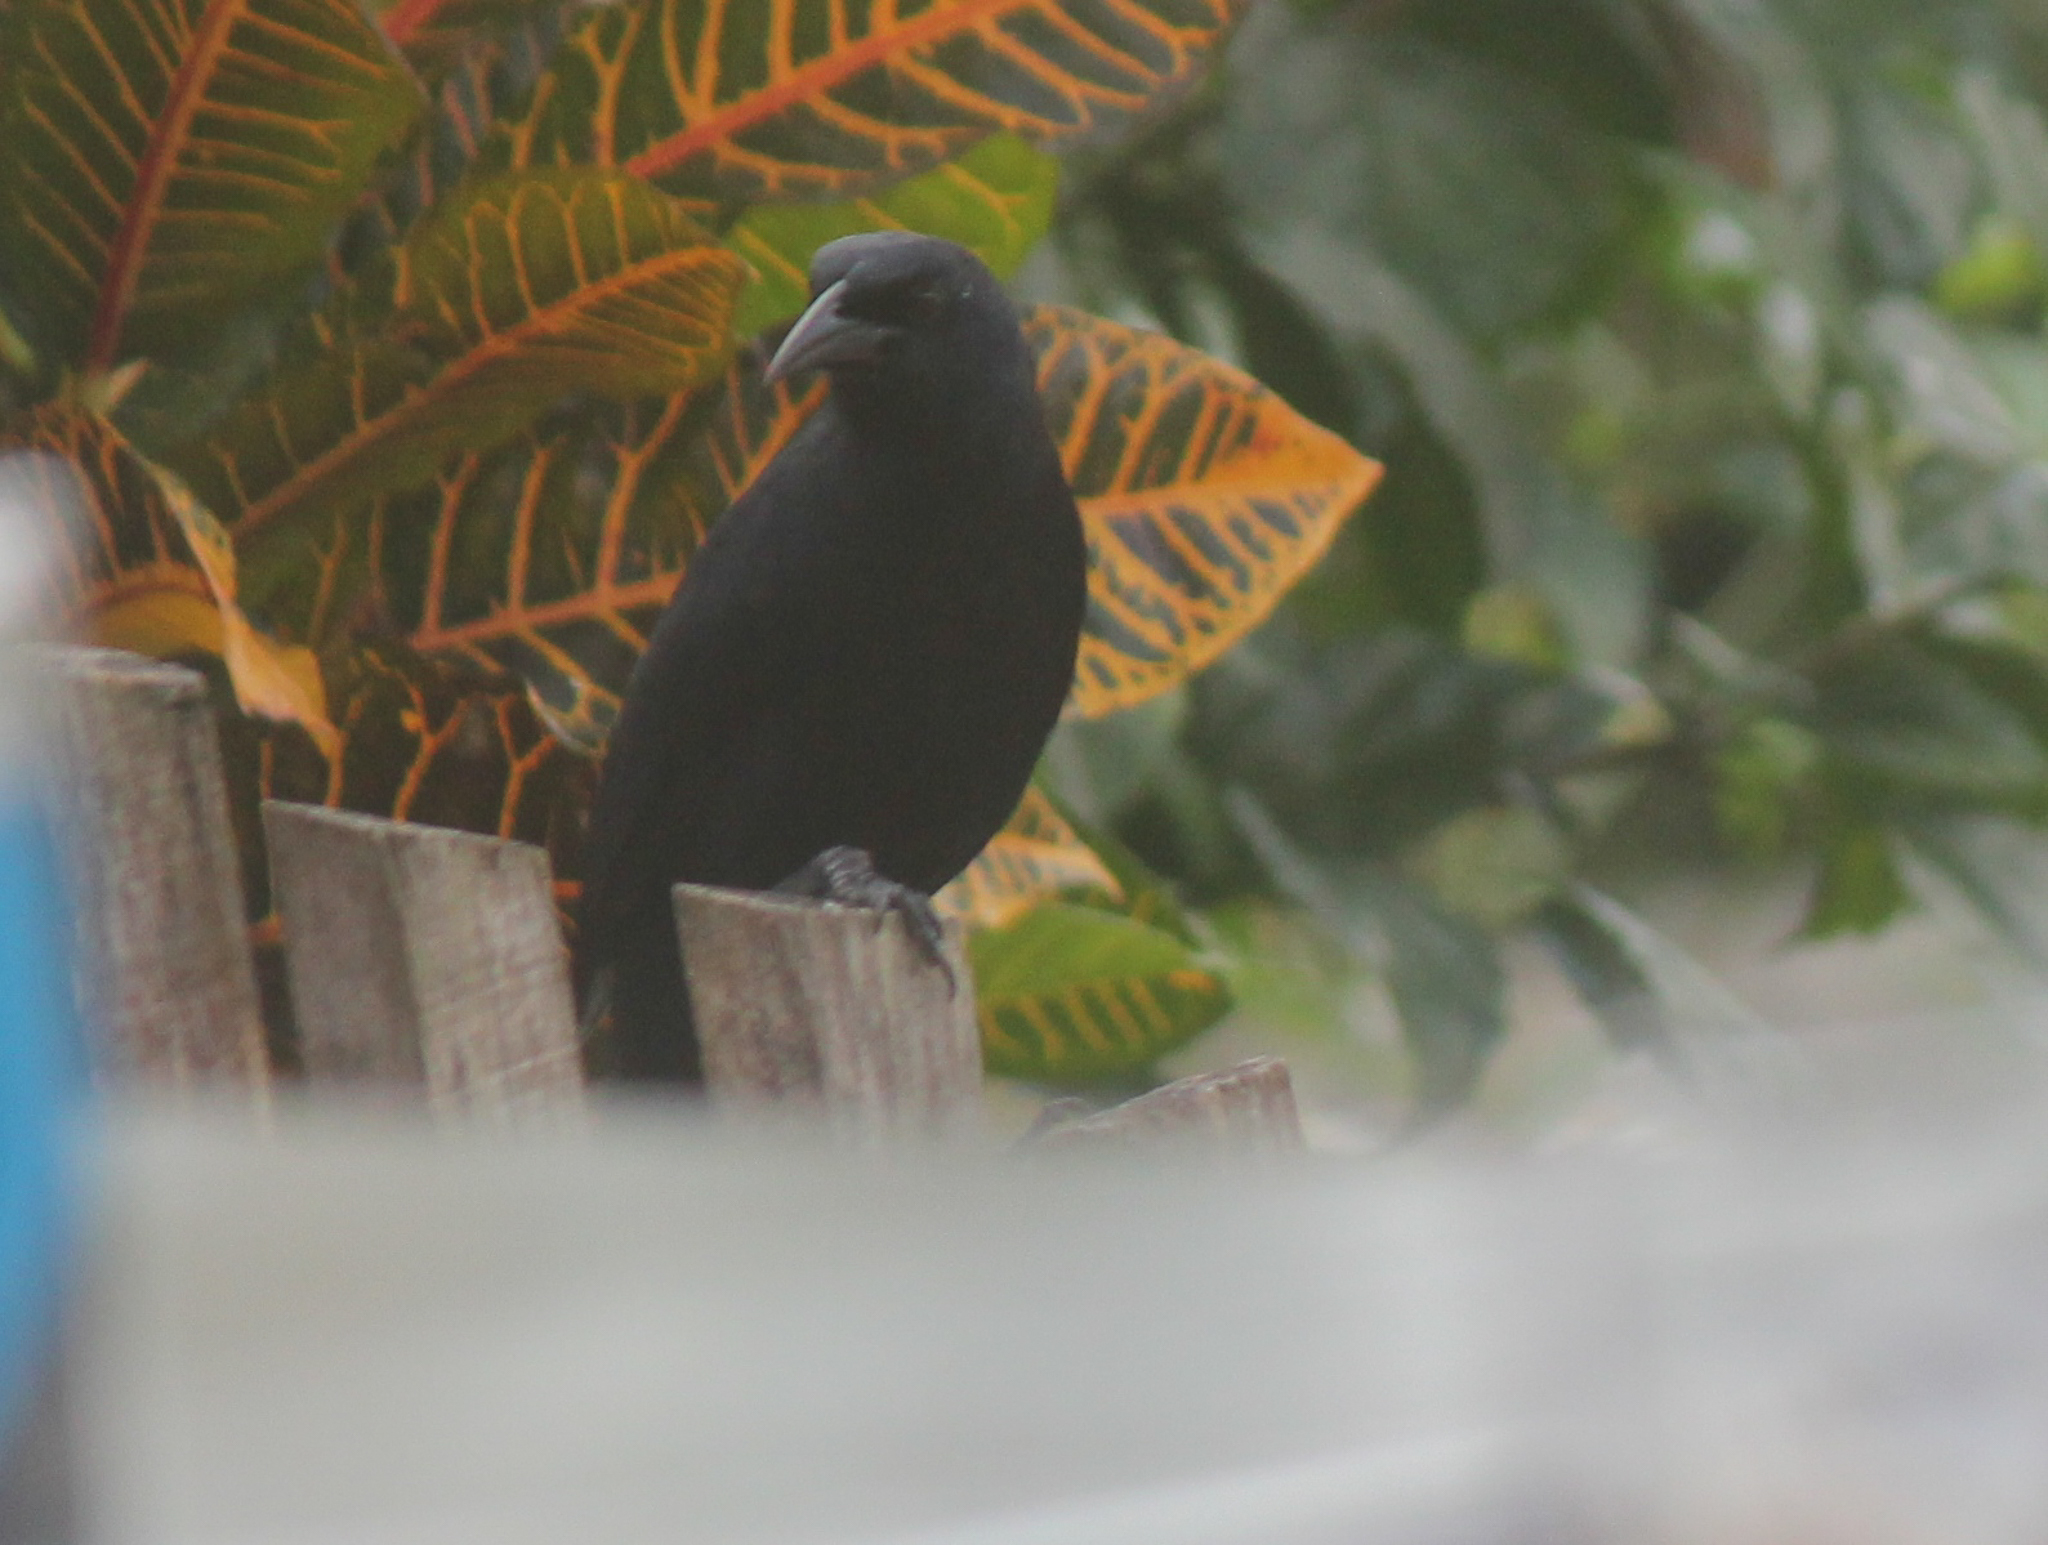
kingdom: Animalia
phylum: Chordata
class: Aves
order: Passeriformes
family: Icteridae
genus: Dives
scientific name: Dives dives
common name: Melodious blackbird
